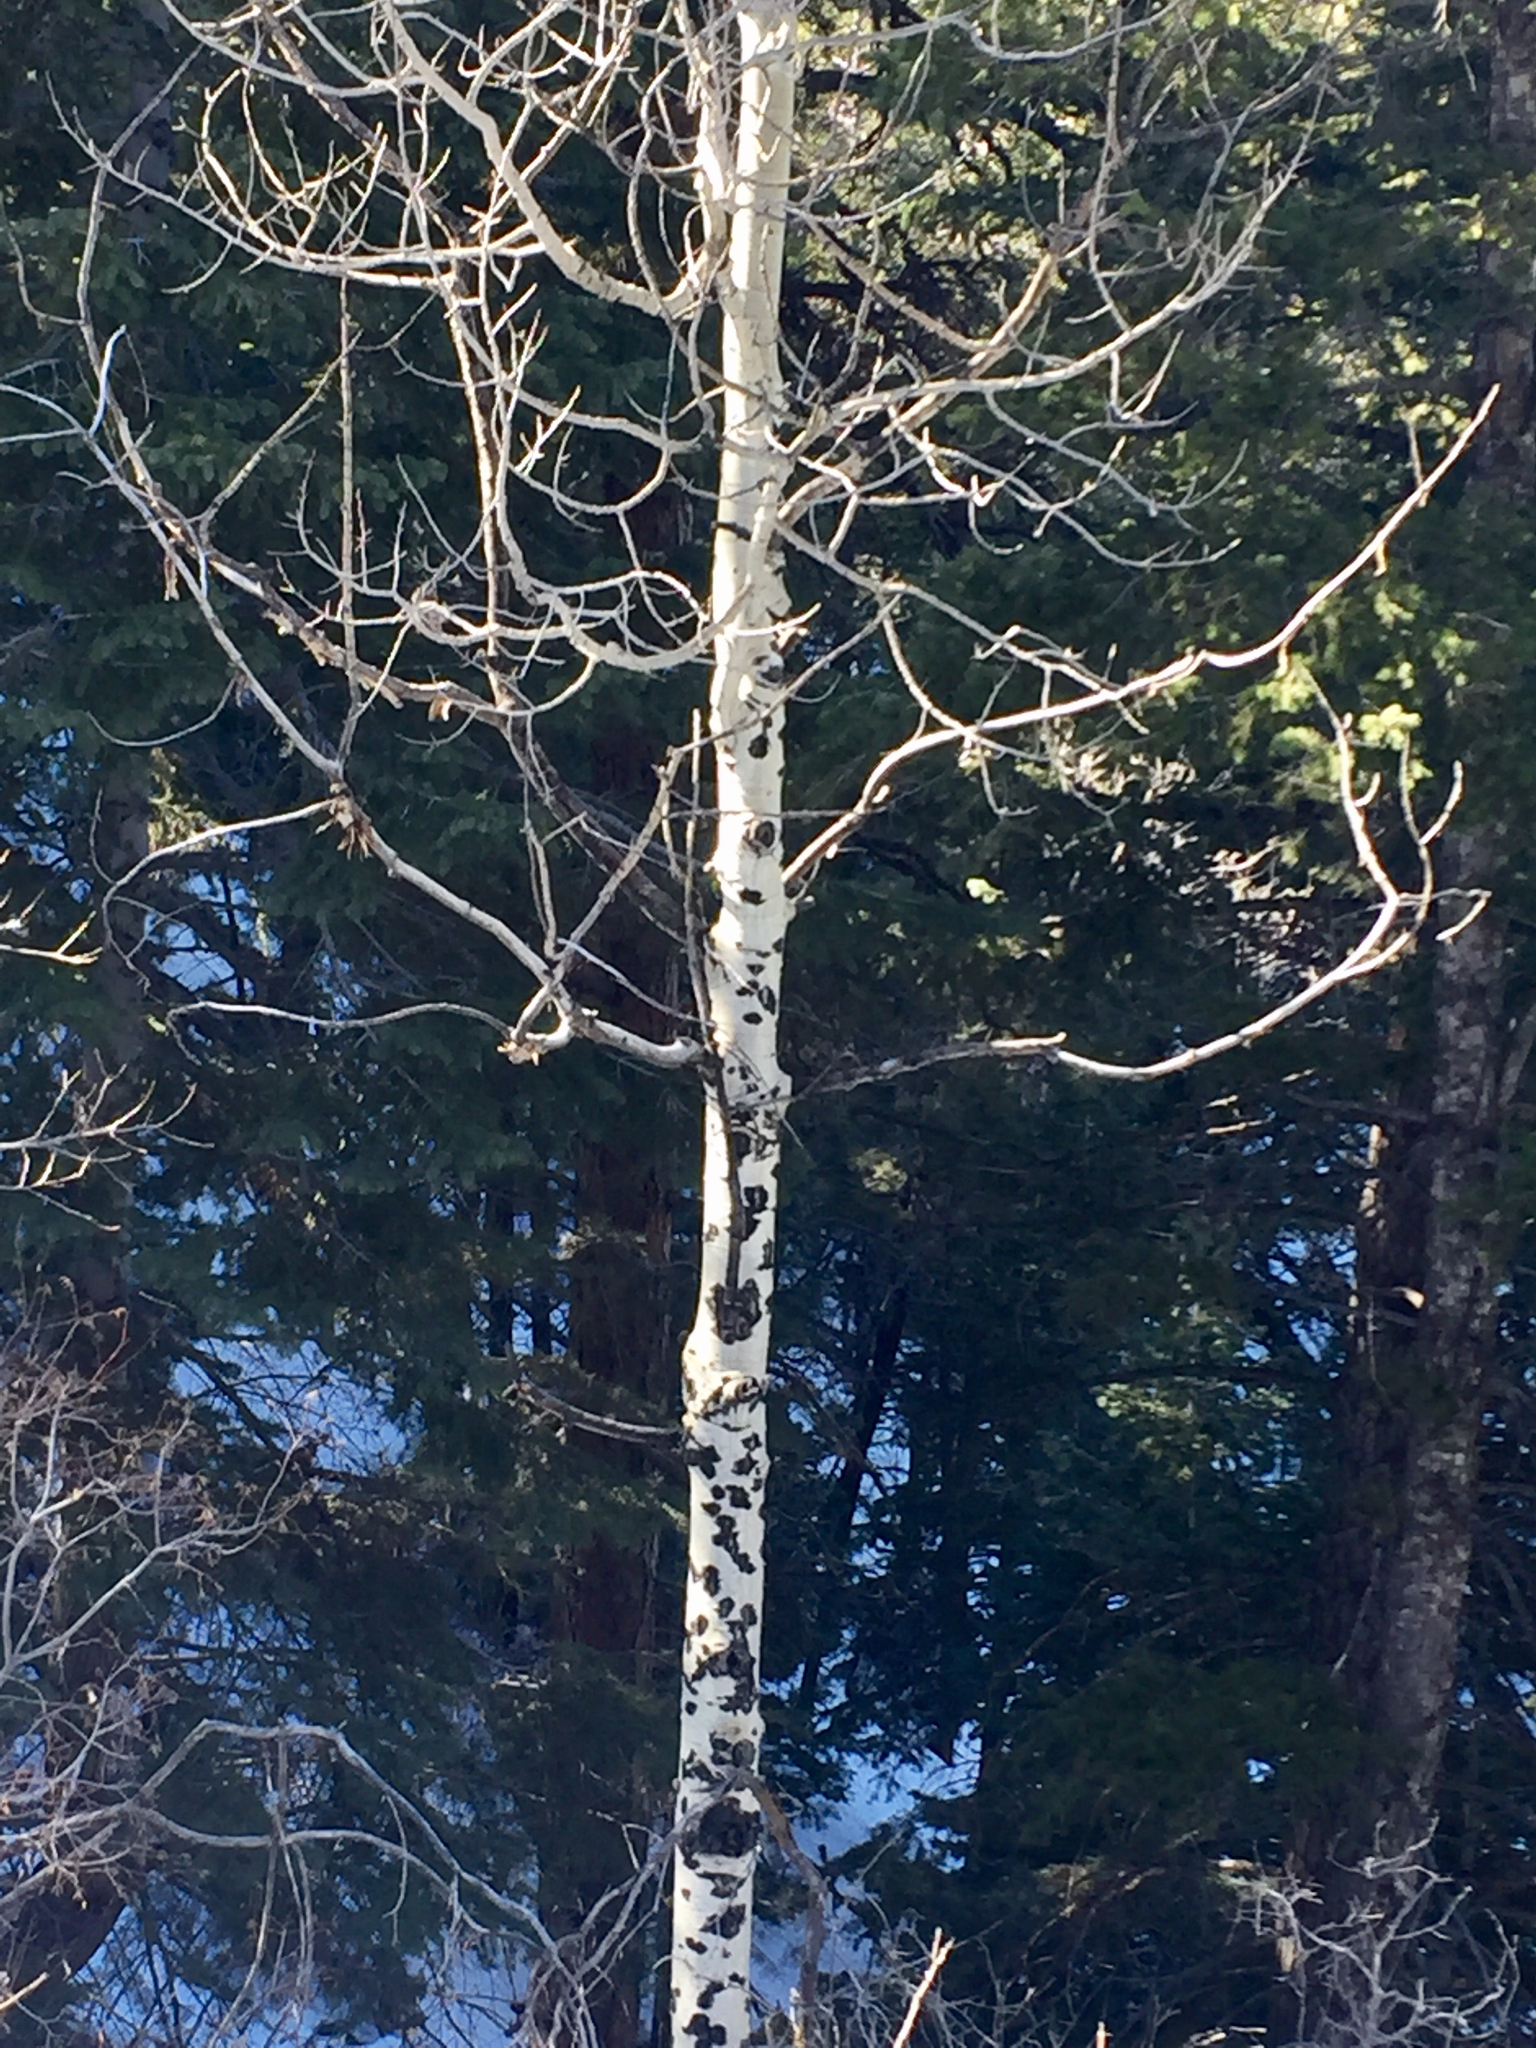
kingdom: Plantae
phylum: Tracheophyta
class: Magnoliopsida
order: Malpighiales
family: Salicaceae
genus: Populus
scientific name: Populus tremuloides
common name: Quaking aspen
